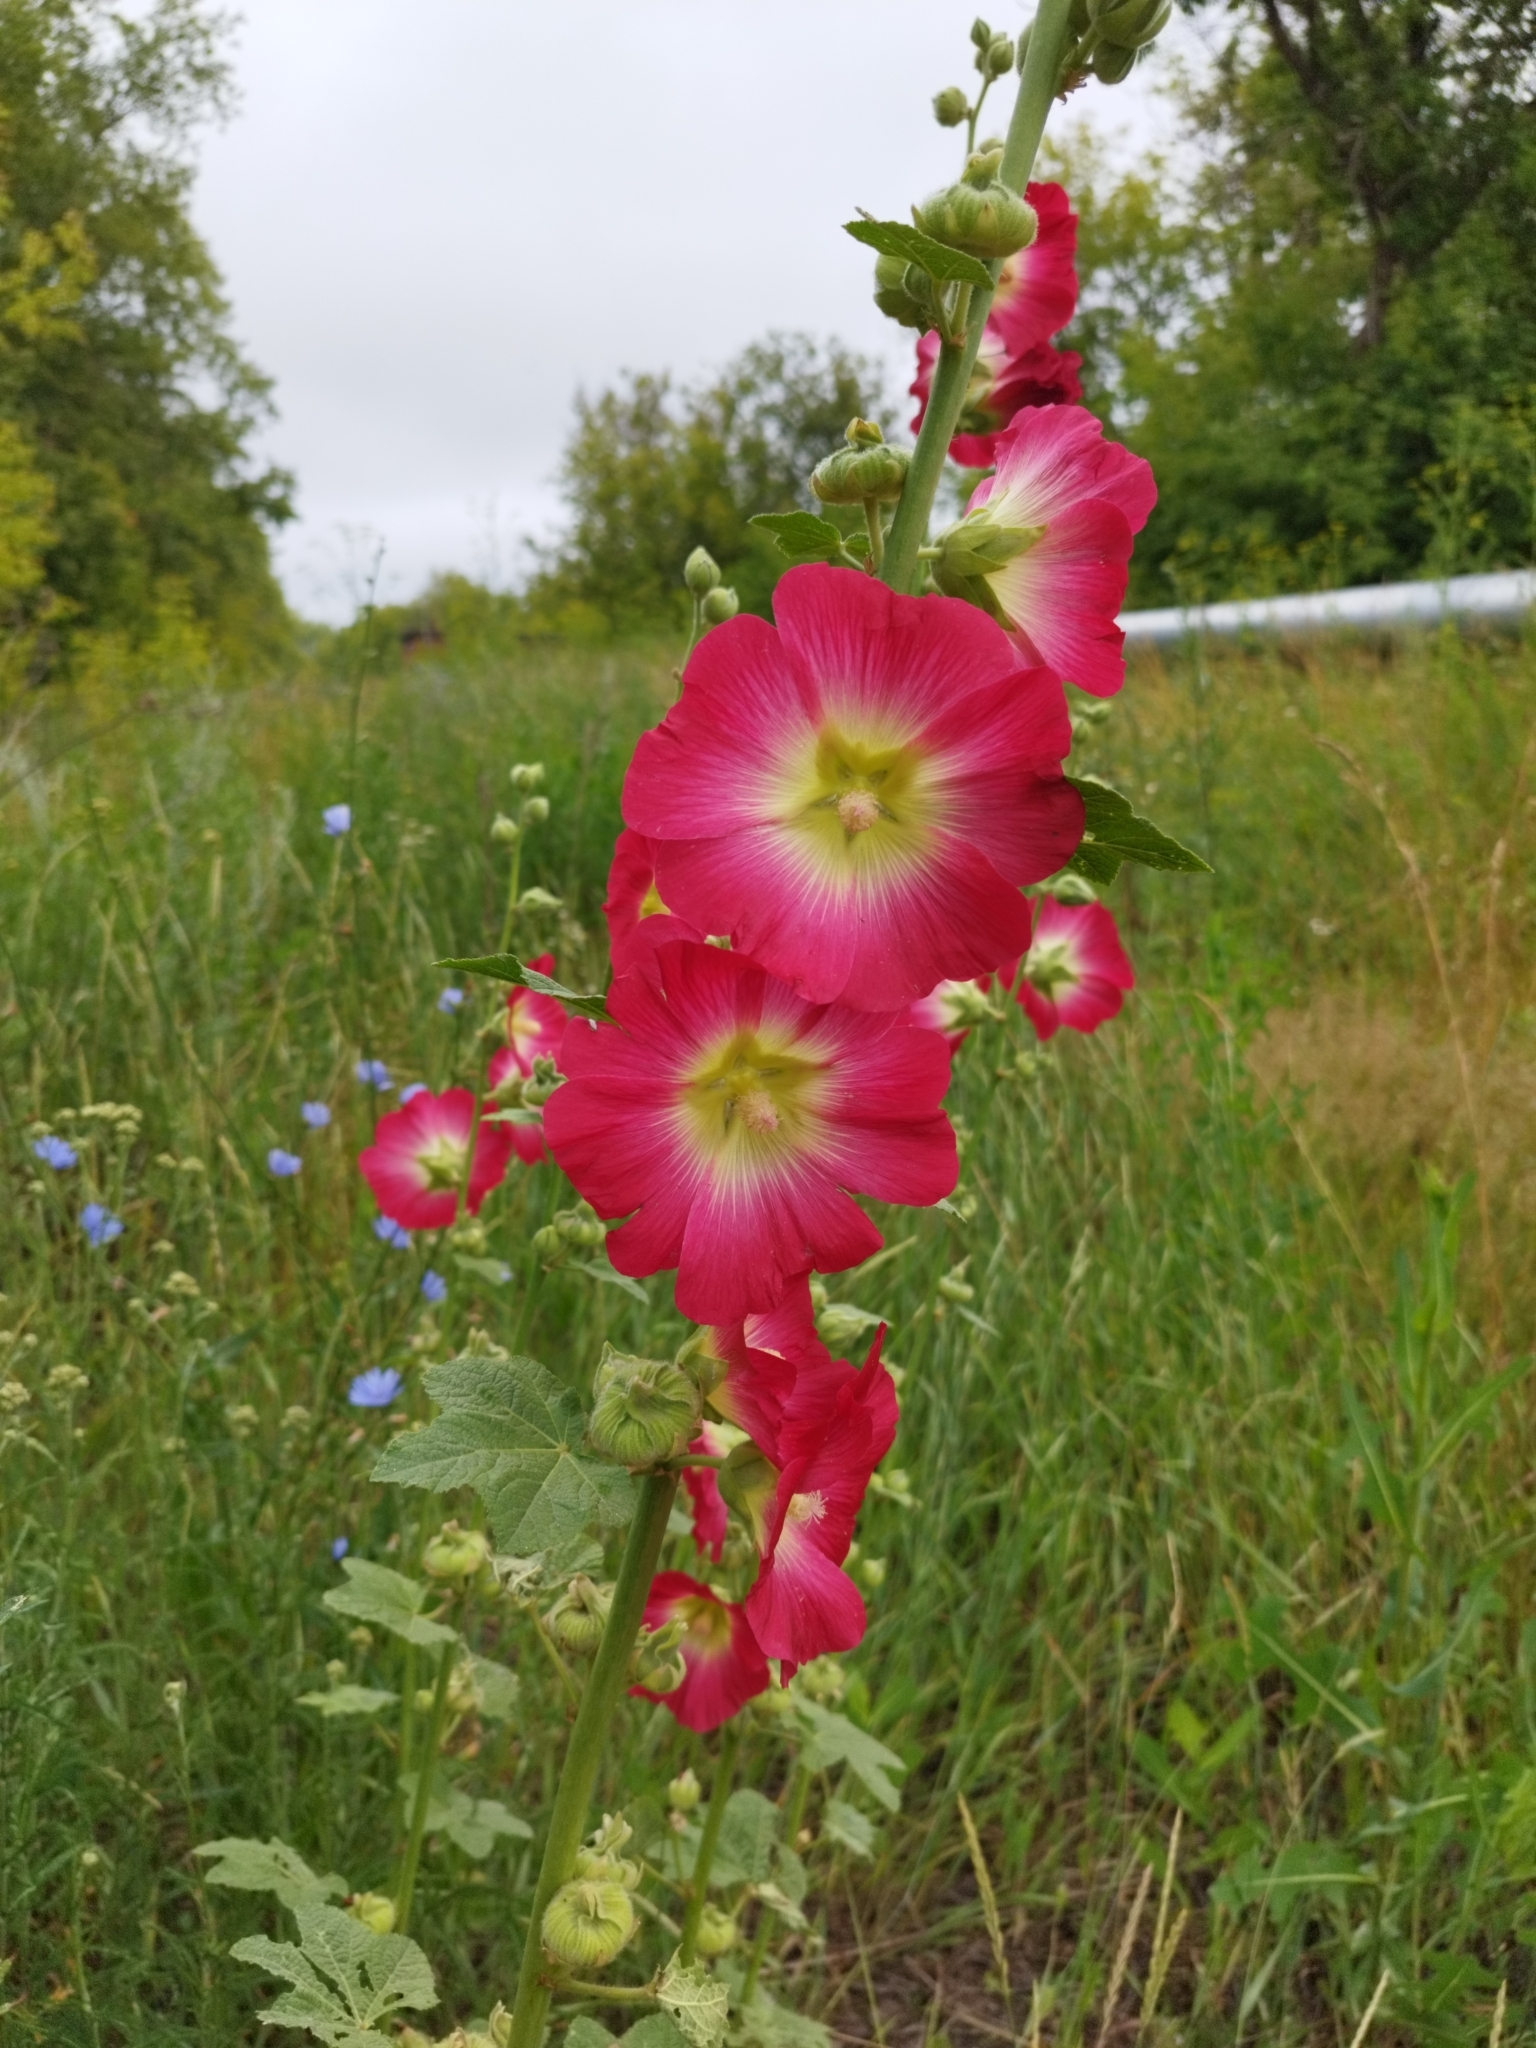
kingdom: Plantae
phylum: Tracheophyta
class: Magnoliopsida
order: Malvales
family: Malvaceae
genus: Alcea
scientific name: Alcea rosea
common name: Hollyhock
